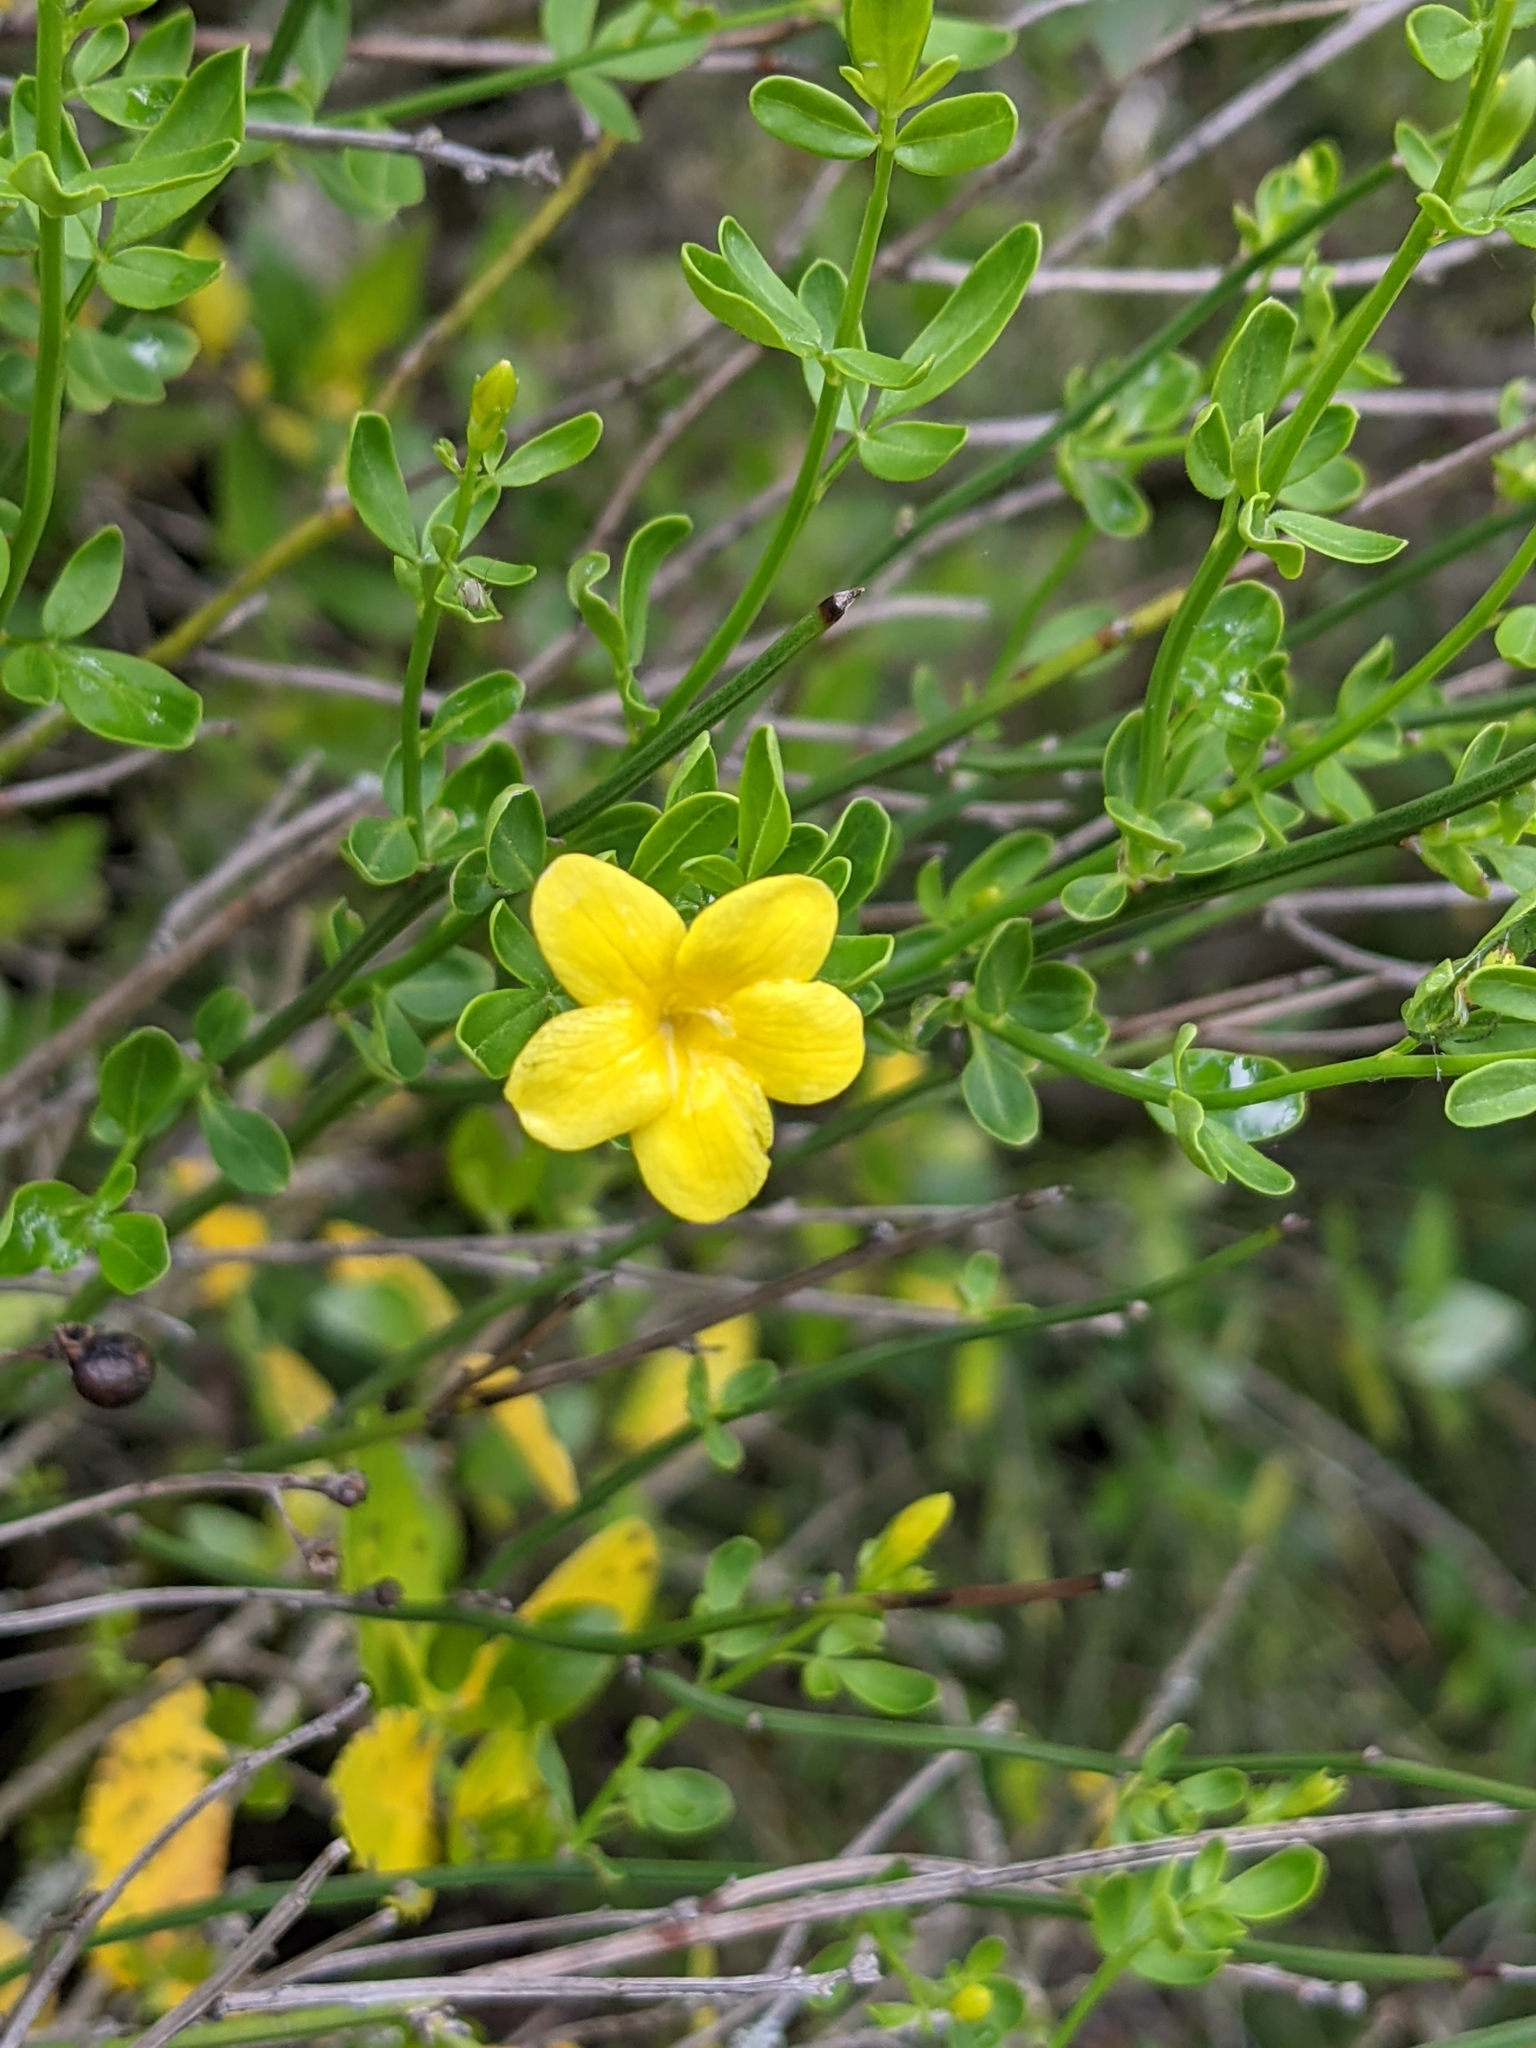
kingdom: Plantae
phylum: Tracheophyta
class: Magnoliopsida
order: Lamiales
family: Oleaceae
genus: Chrysojasminum
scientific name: Chrysojasminum fruticans
